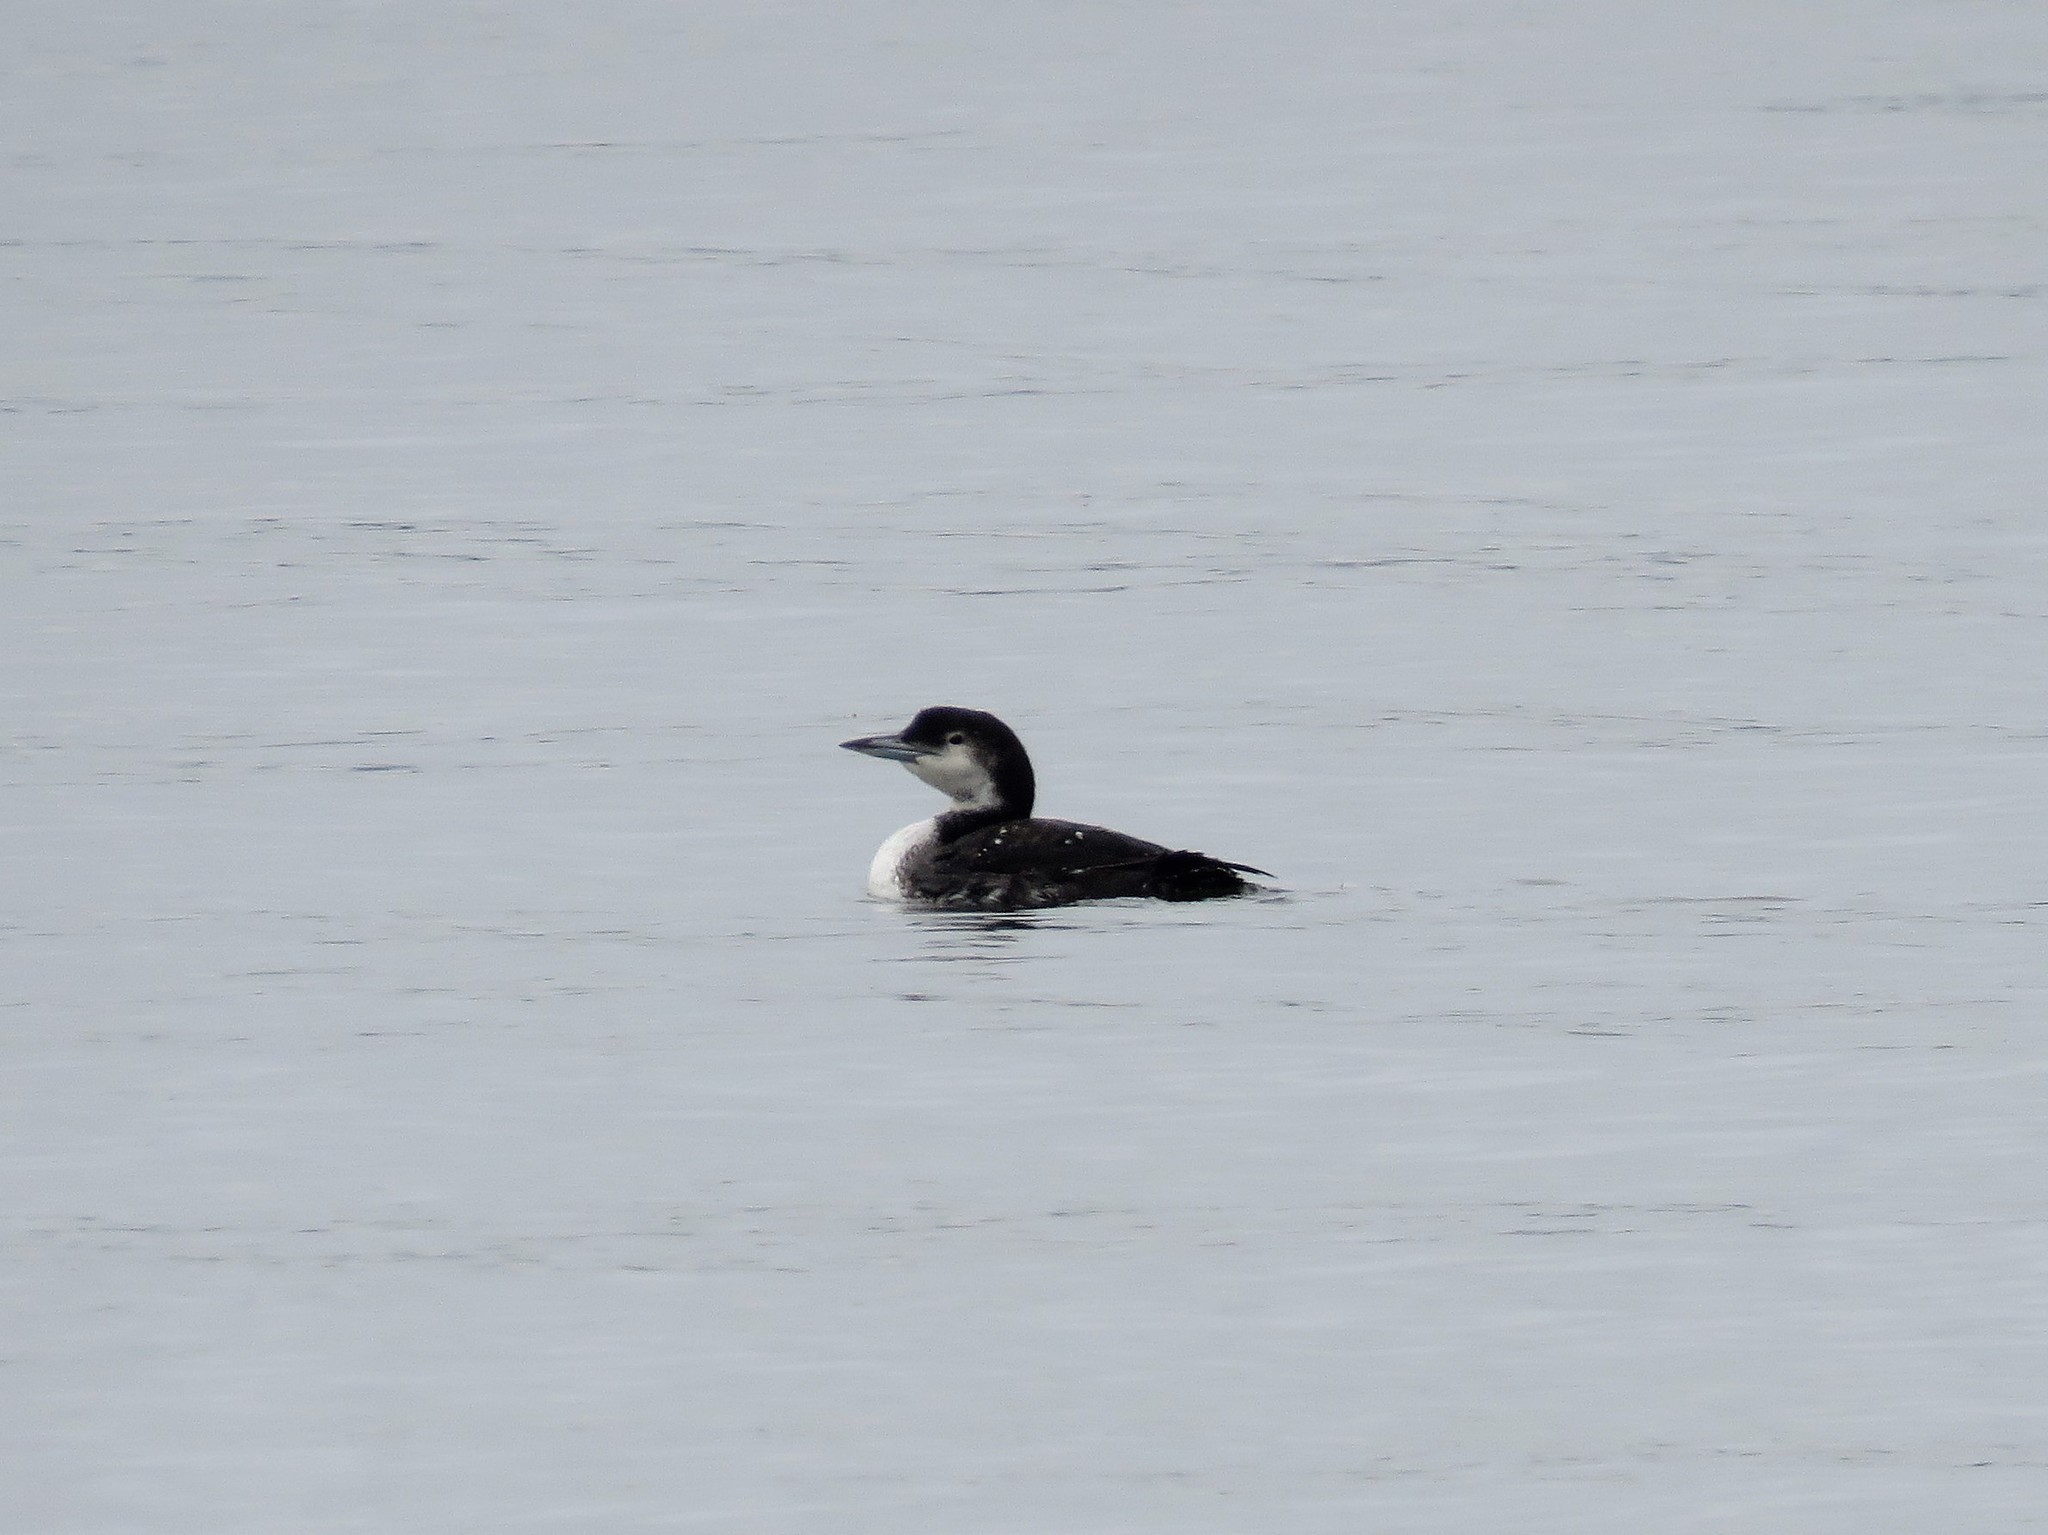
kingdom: Animalia
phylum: Chordata
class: Aves
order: Gaviiformes
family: Gaviidae
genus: Gavia
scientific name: Gavia immer
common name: Common loon
